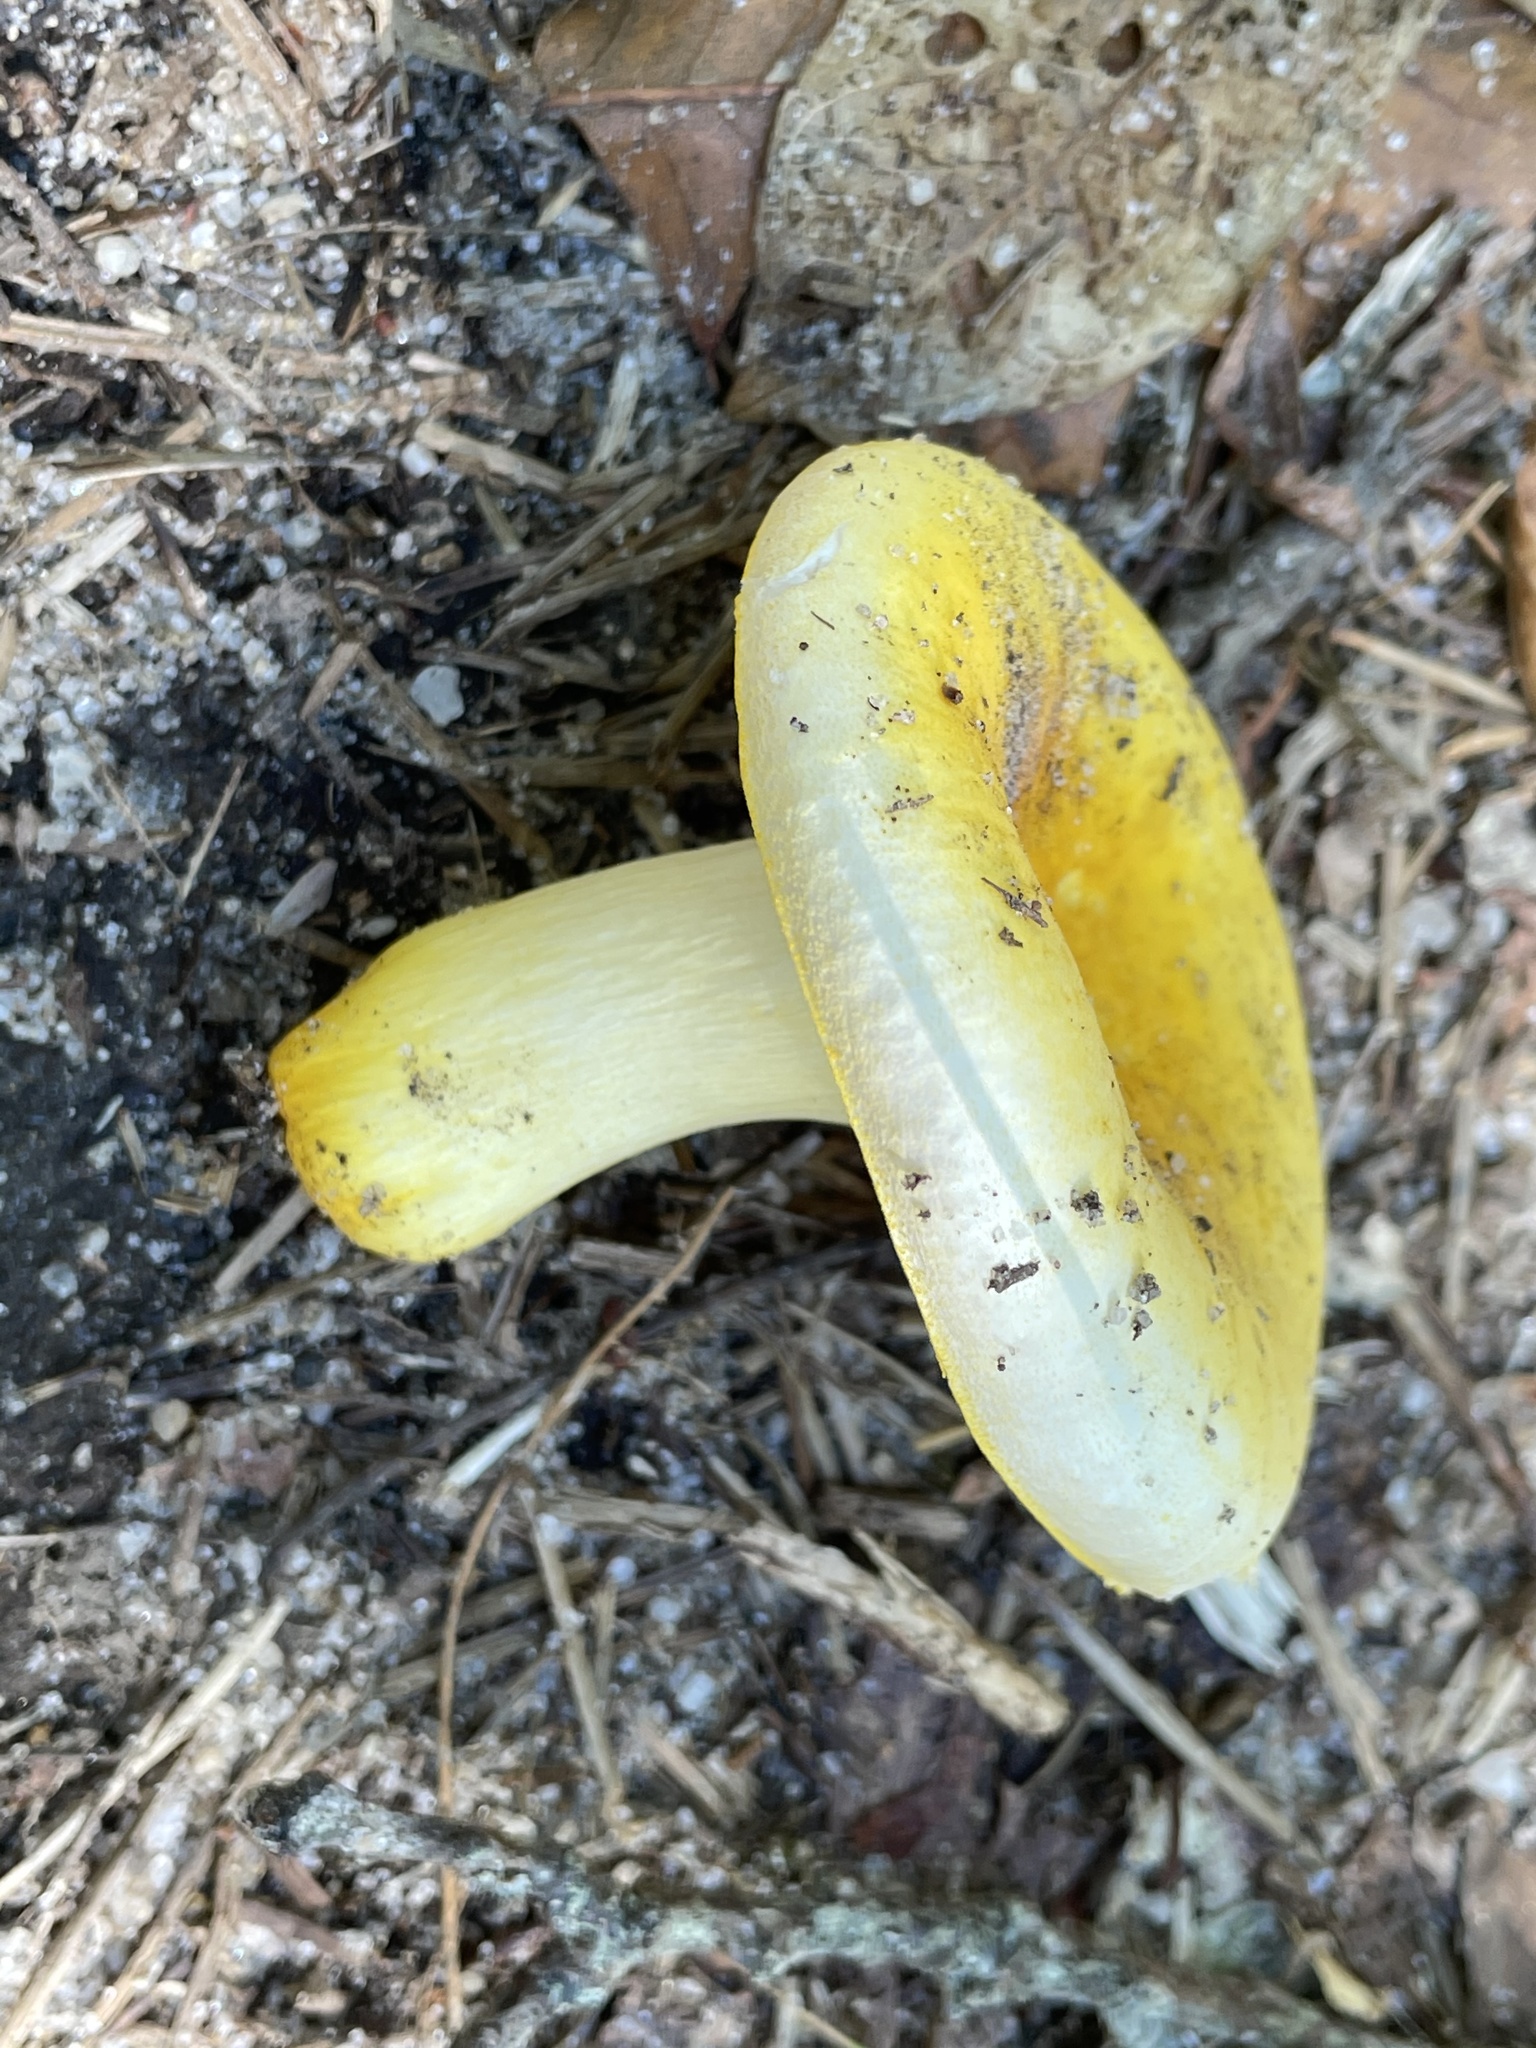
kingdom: Fungi
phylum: Basidiomycota
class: Agaricomycetes
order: Russulales
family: Russulaceae
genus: Russula
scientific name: Russula flavida
